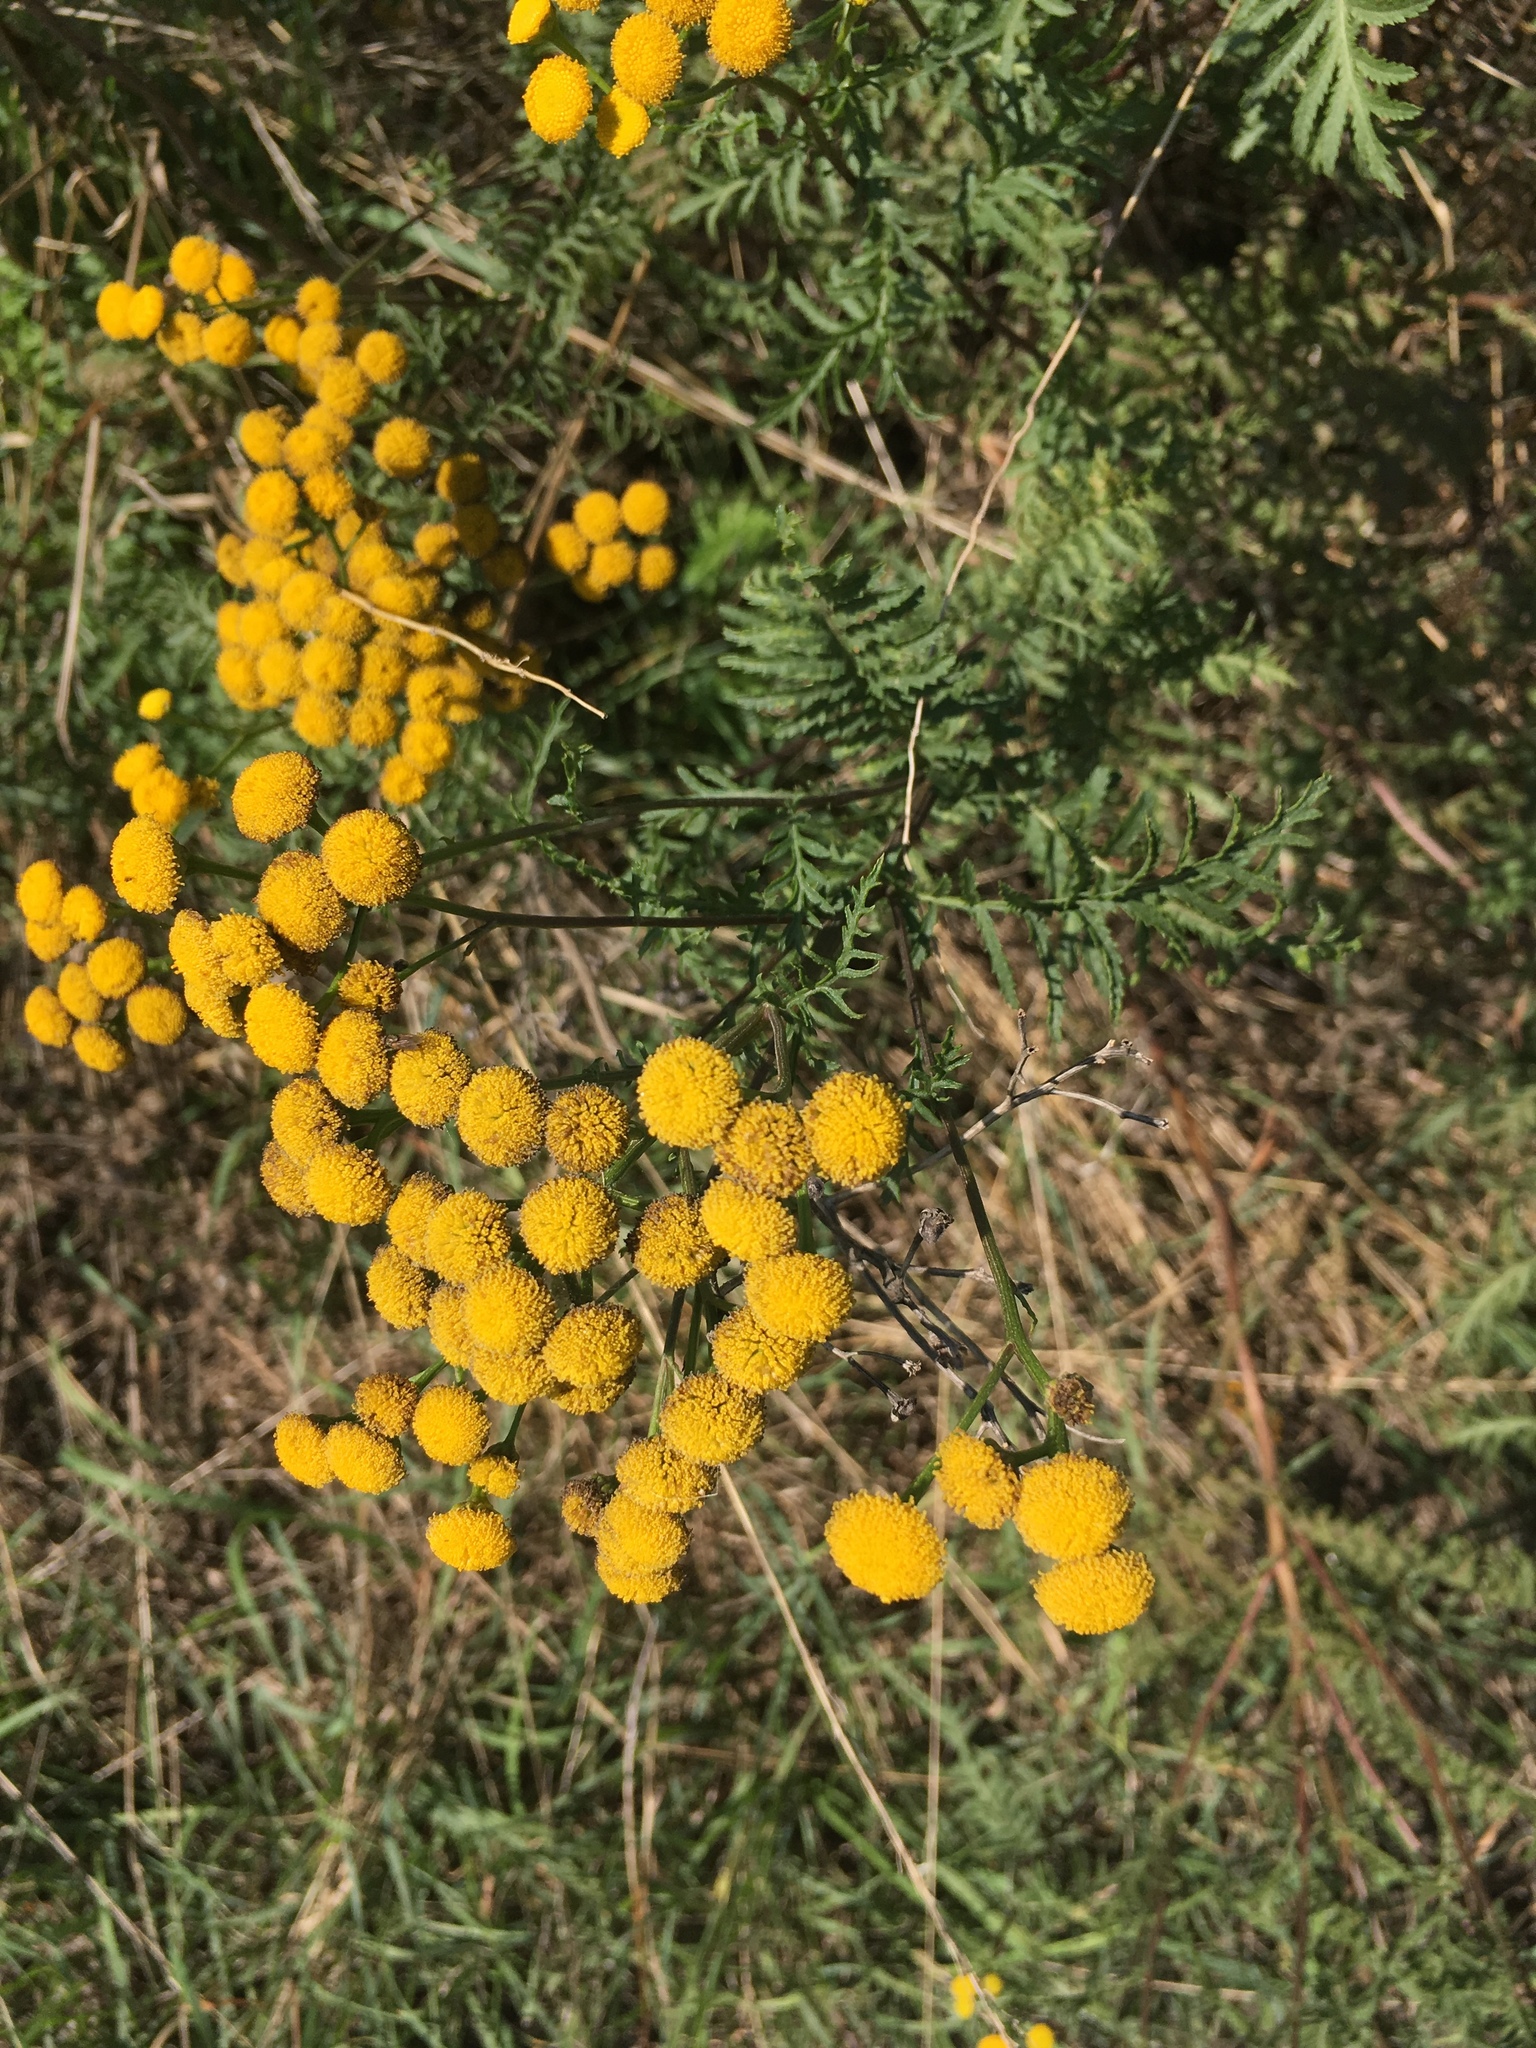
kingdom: Plantae
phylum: Tracheophyta
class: Magnoliopsida
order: Asterales
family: Asteraceae
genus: Tanacetum
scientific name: Tanacetum vulgare
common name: Common tansy
